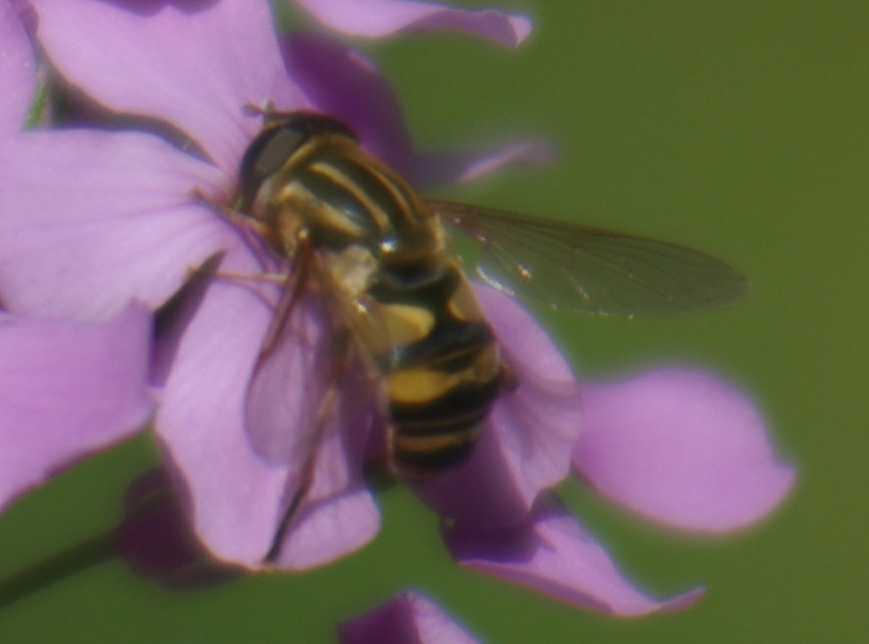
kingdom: Animalia
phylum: Arthropoda
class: Insecta
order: Diptera
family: Syrphidae
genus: Helophilus
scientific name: Helophilus fasciatus
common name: Narrow-headed marsh fly
